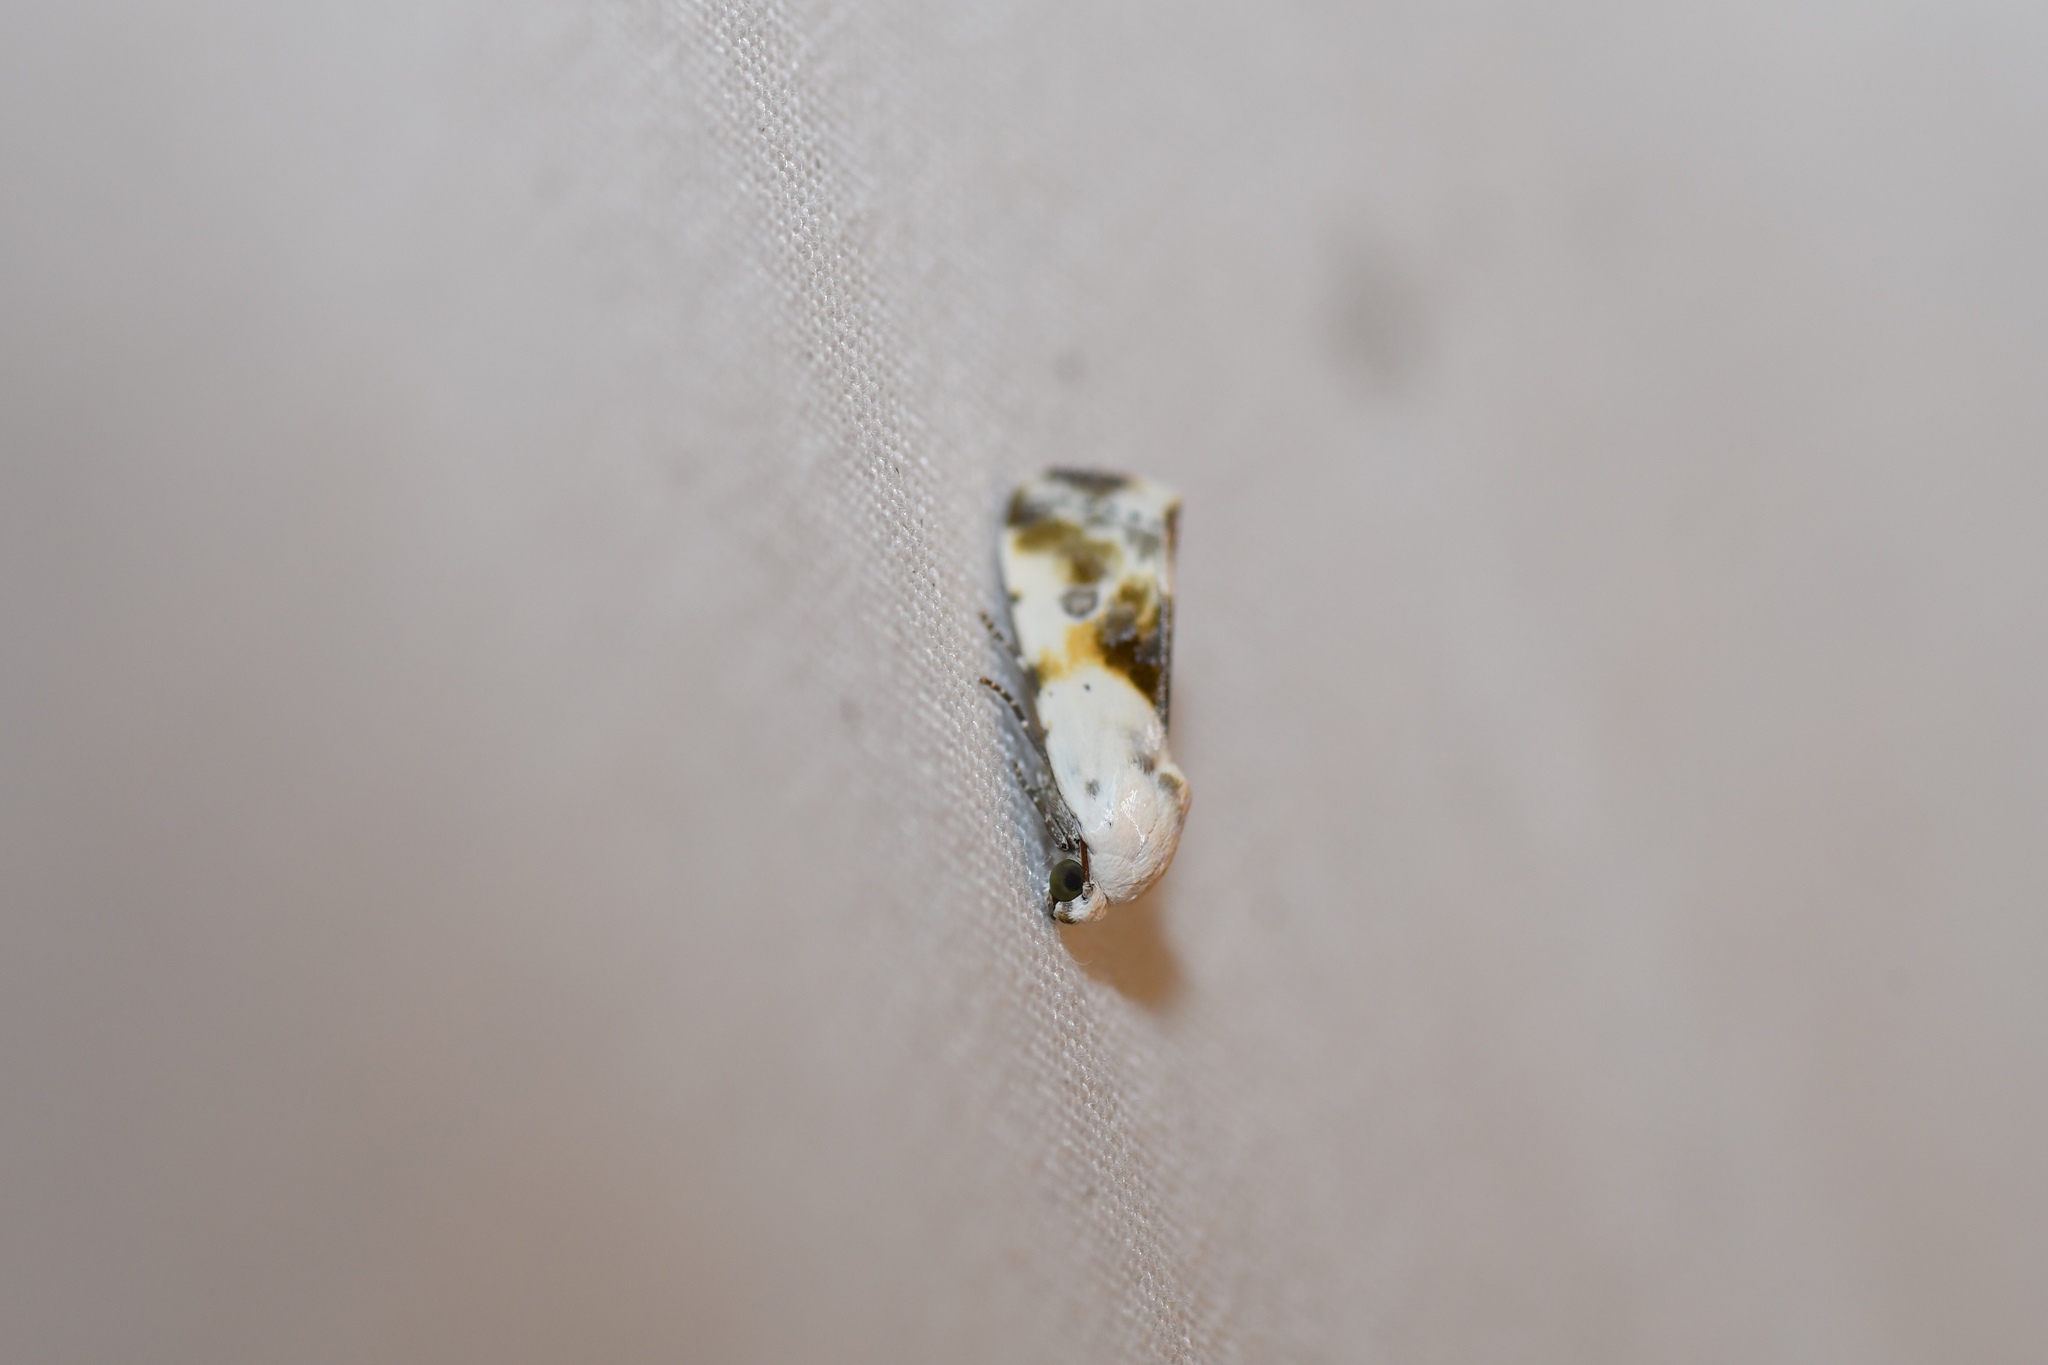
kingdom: Animalia
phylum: Arthropoda
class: Insecta
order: Lepidoptera
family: Noctuidae
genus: Acontia
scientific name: Acontia candefacta
